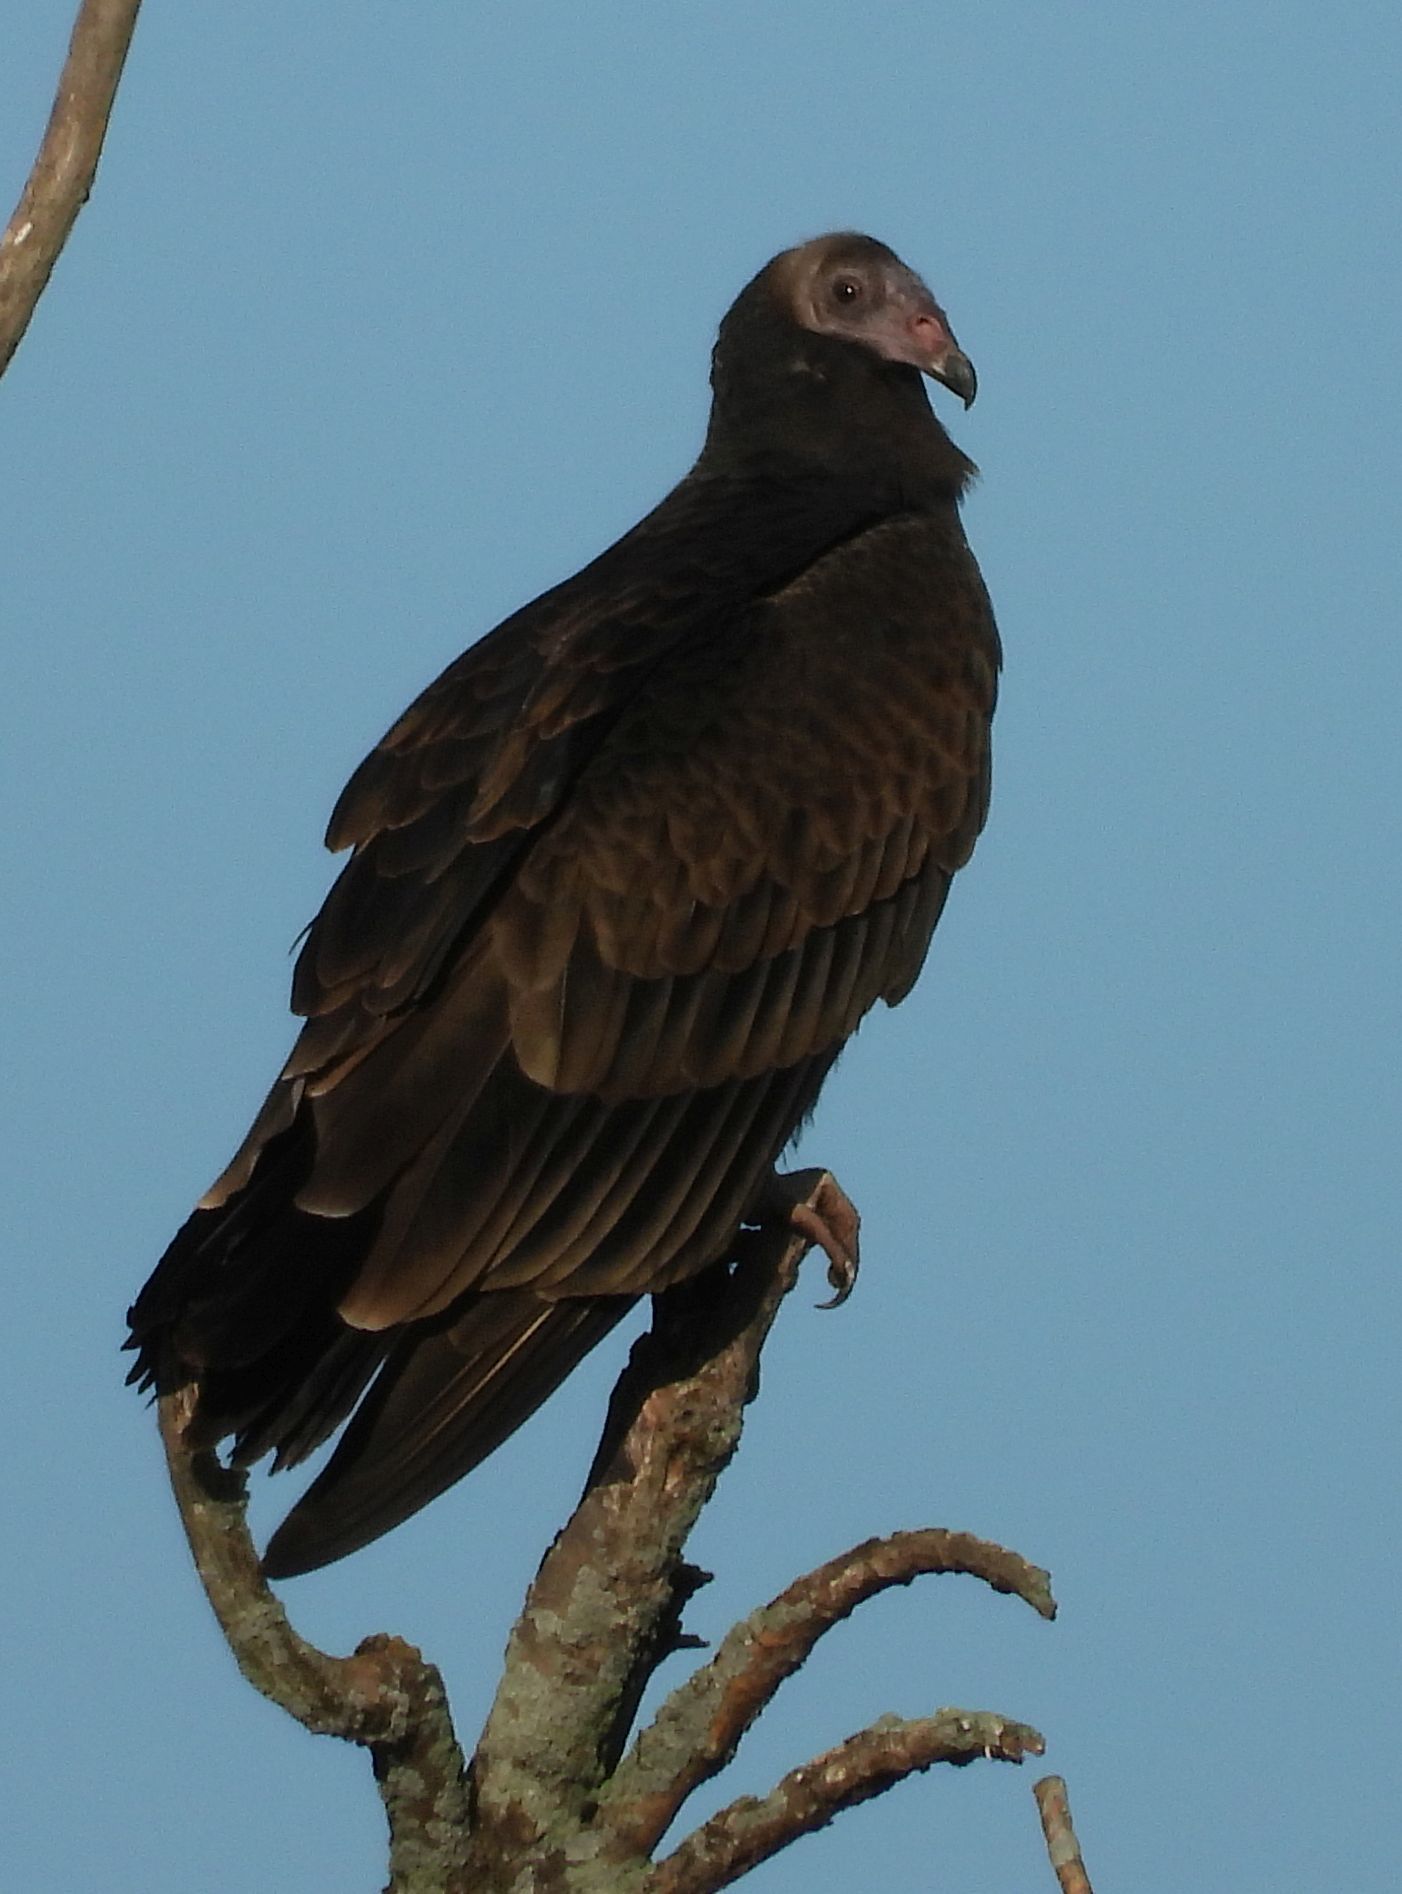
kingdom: Animalia
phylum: Chordata
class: Aves
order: Accipitriformes
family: Cathartidae
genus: Cathartes
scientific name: Cathartes aura
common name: Turkey vulture
